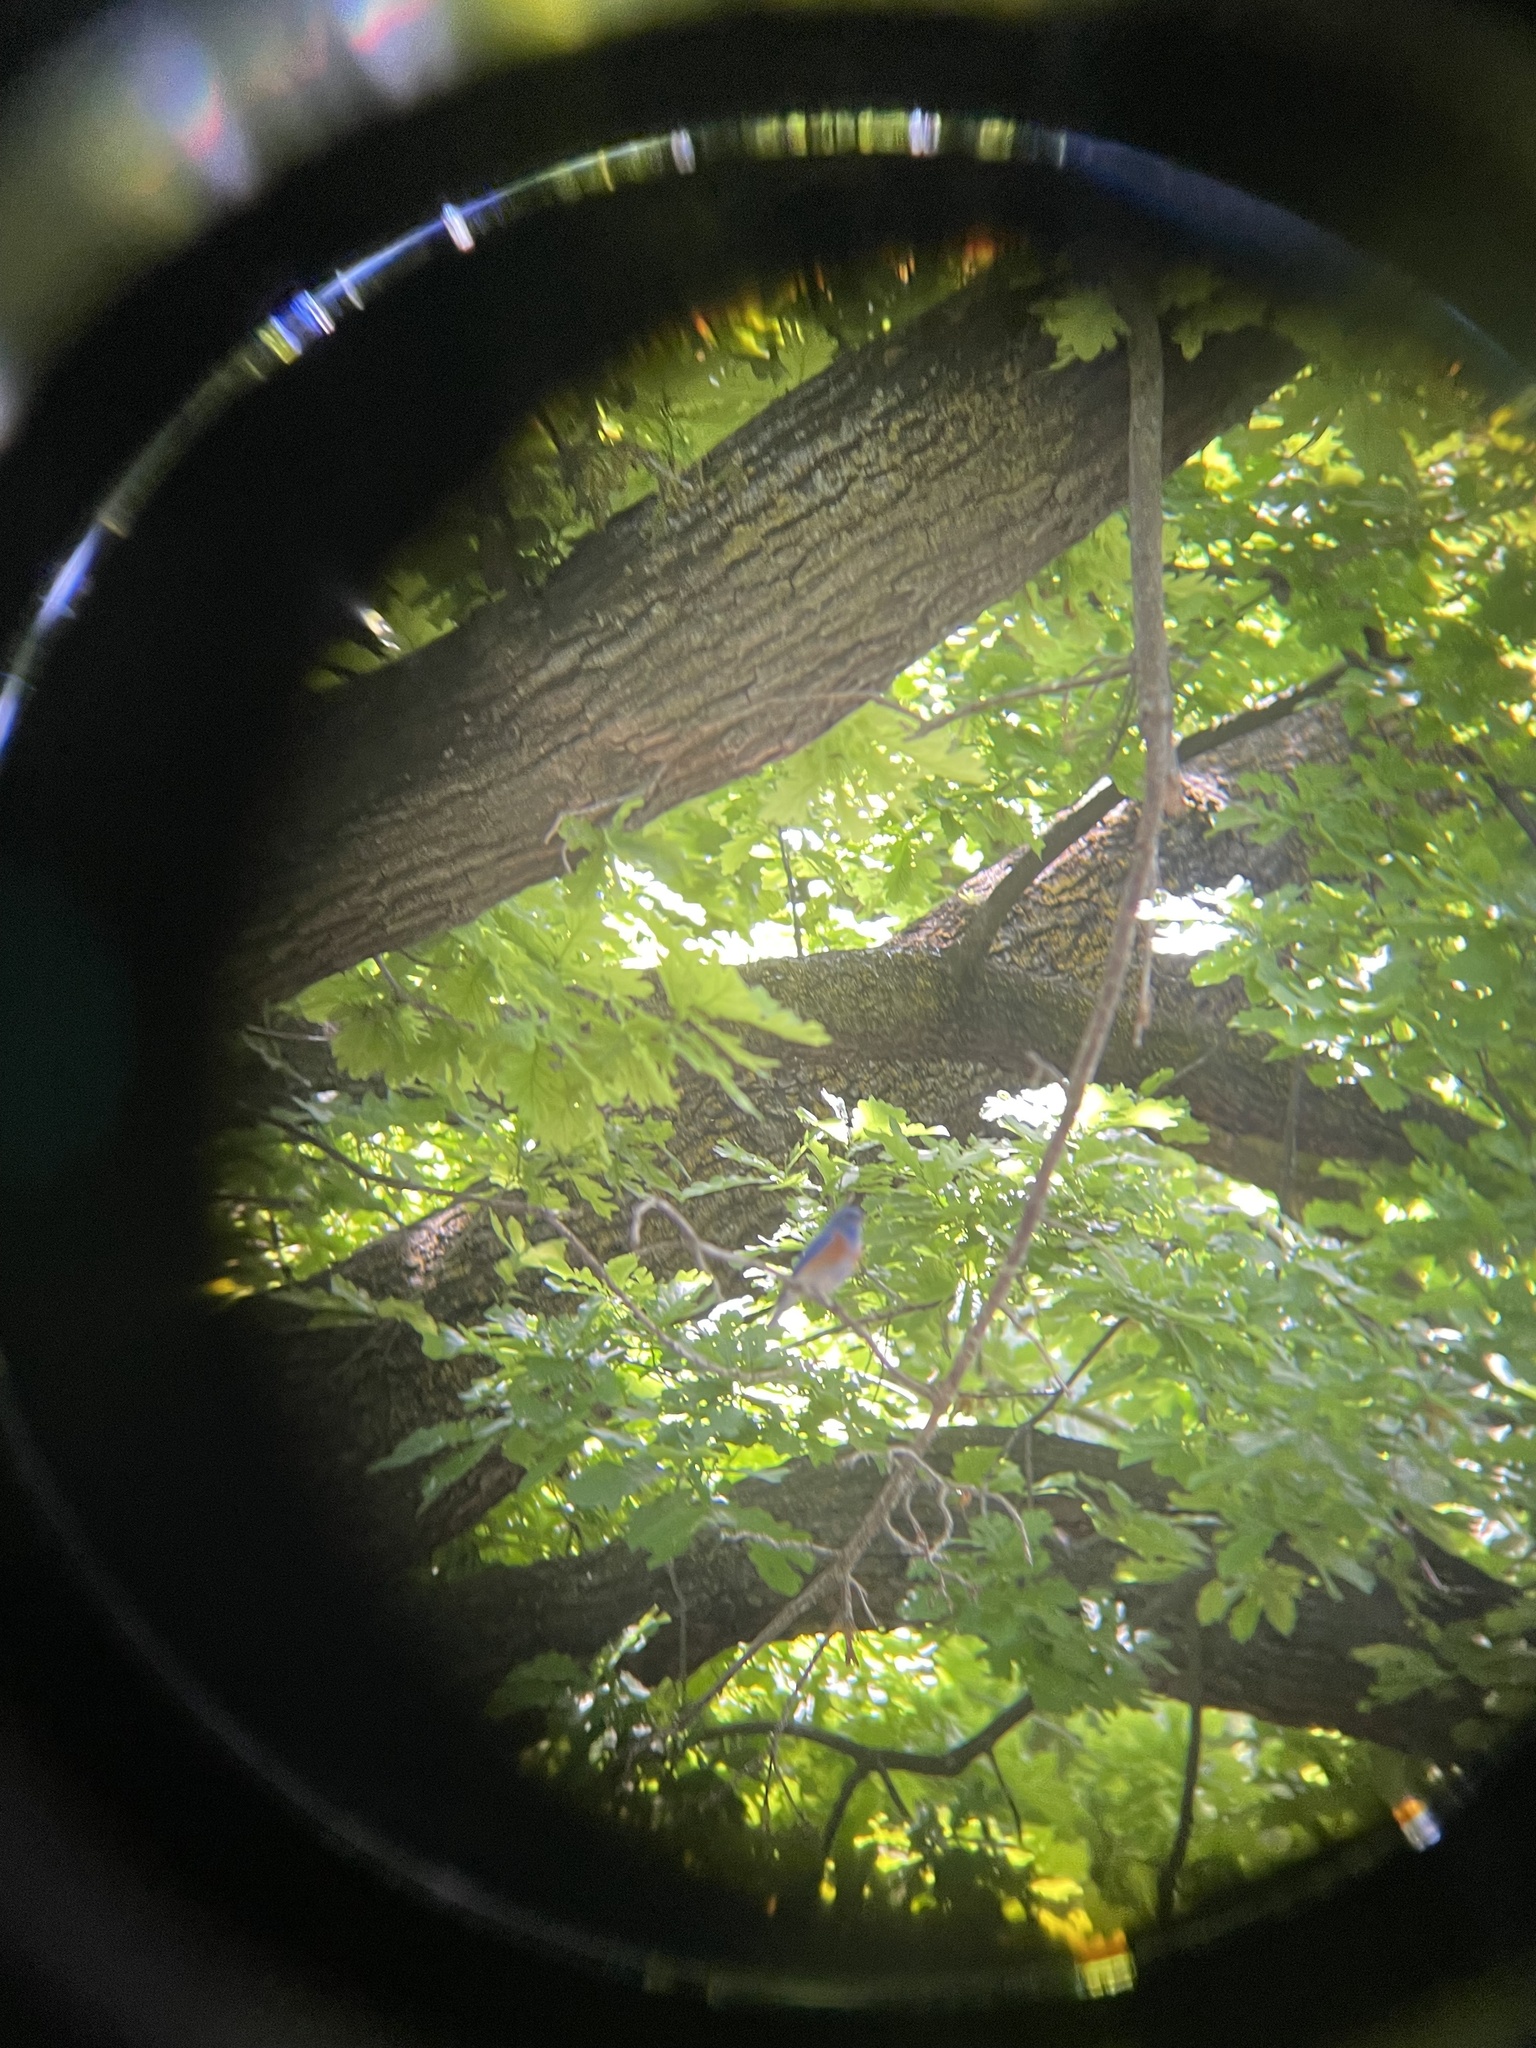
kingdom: Animalia
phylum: Chordata
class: Aves
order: Passeriformes
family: Turdidae
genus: Sialia
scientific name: Sialia mexicana
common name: Western bluebird
